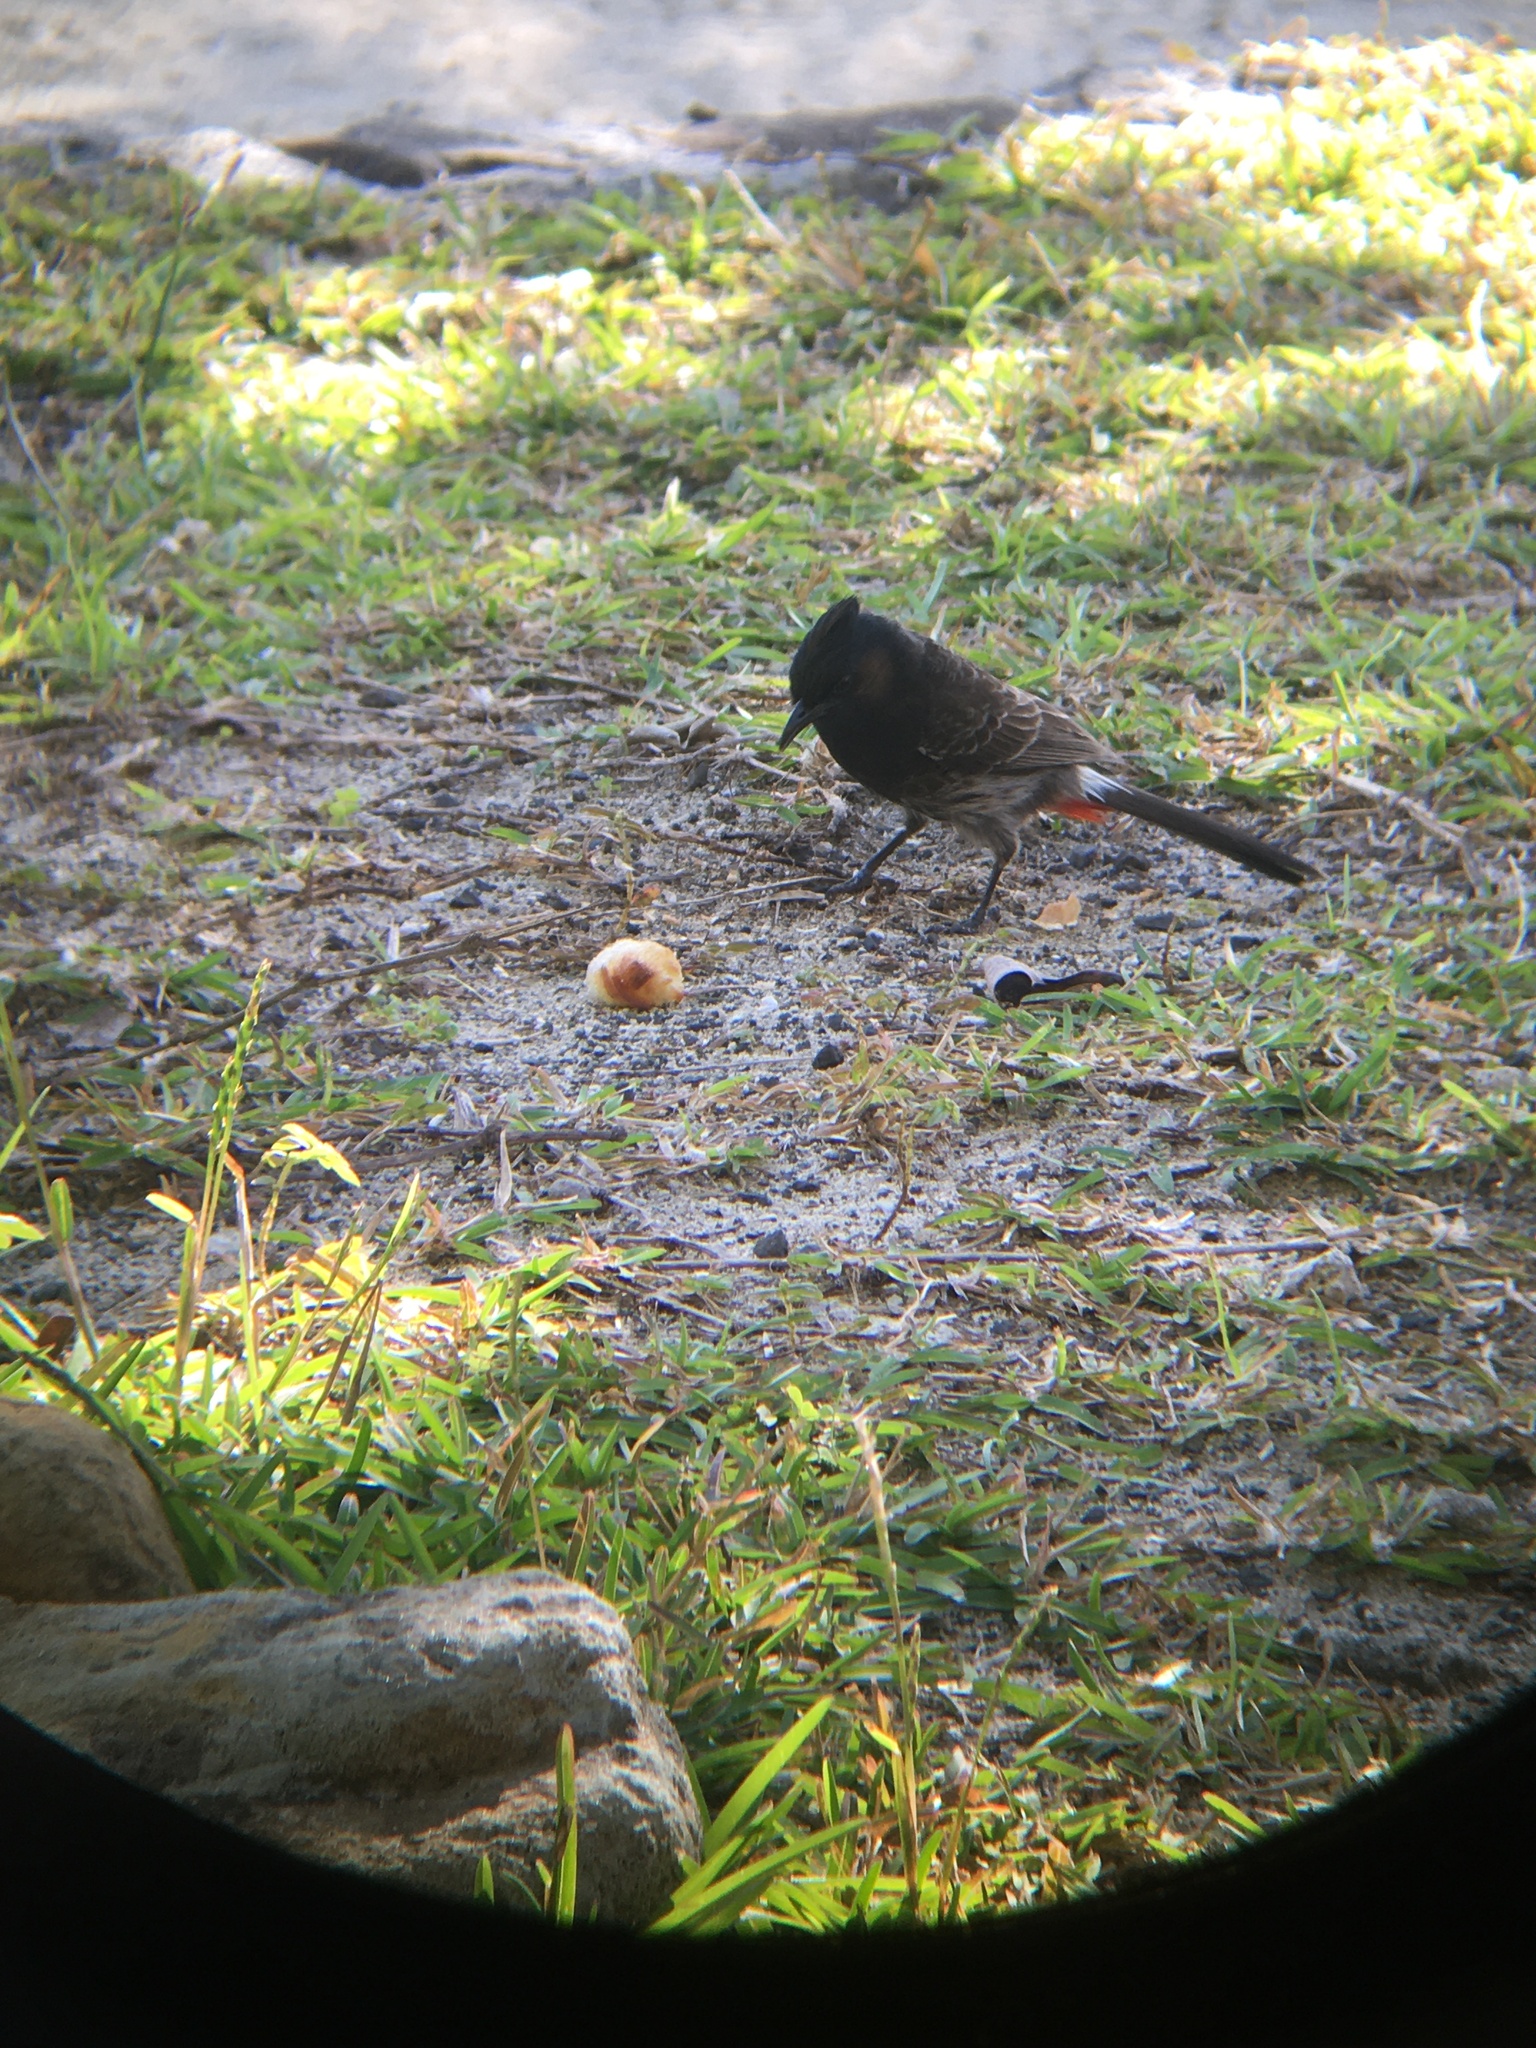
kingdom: Animalia
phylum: Chordata
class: Aves
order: Passeriformes
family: Pycnonotidae
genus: Pycnonotus
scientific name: Pycnonotus cafer
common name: Red-vented bulbul
